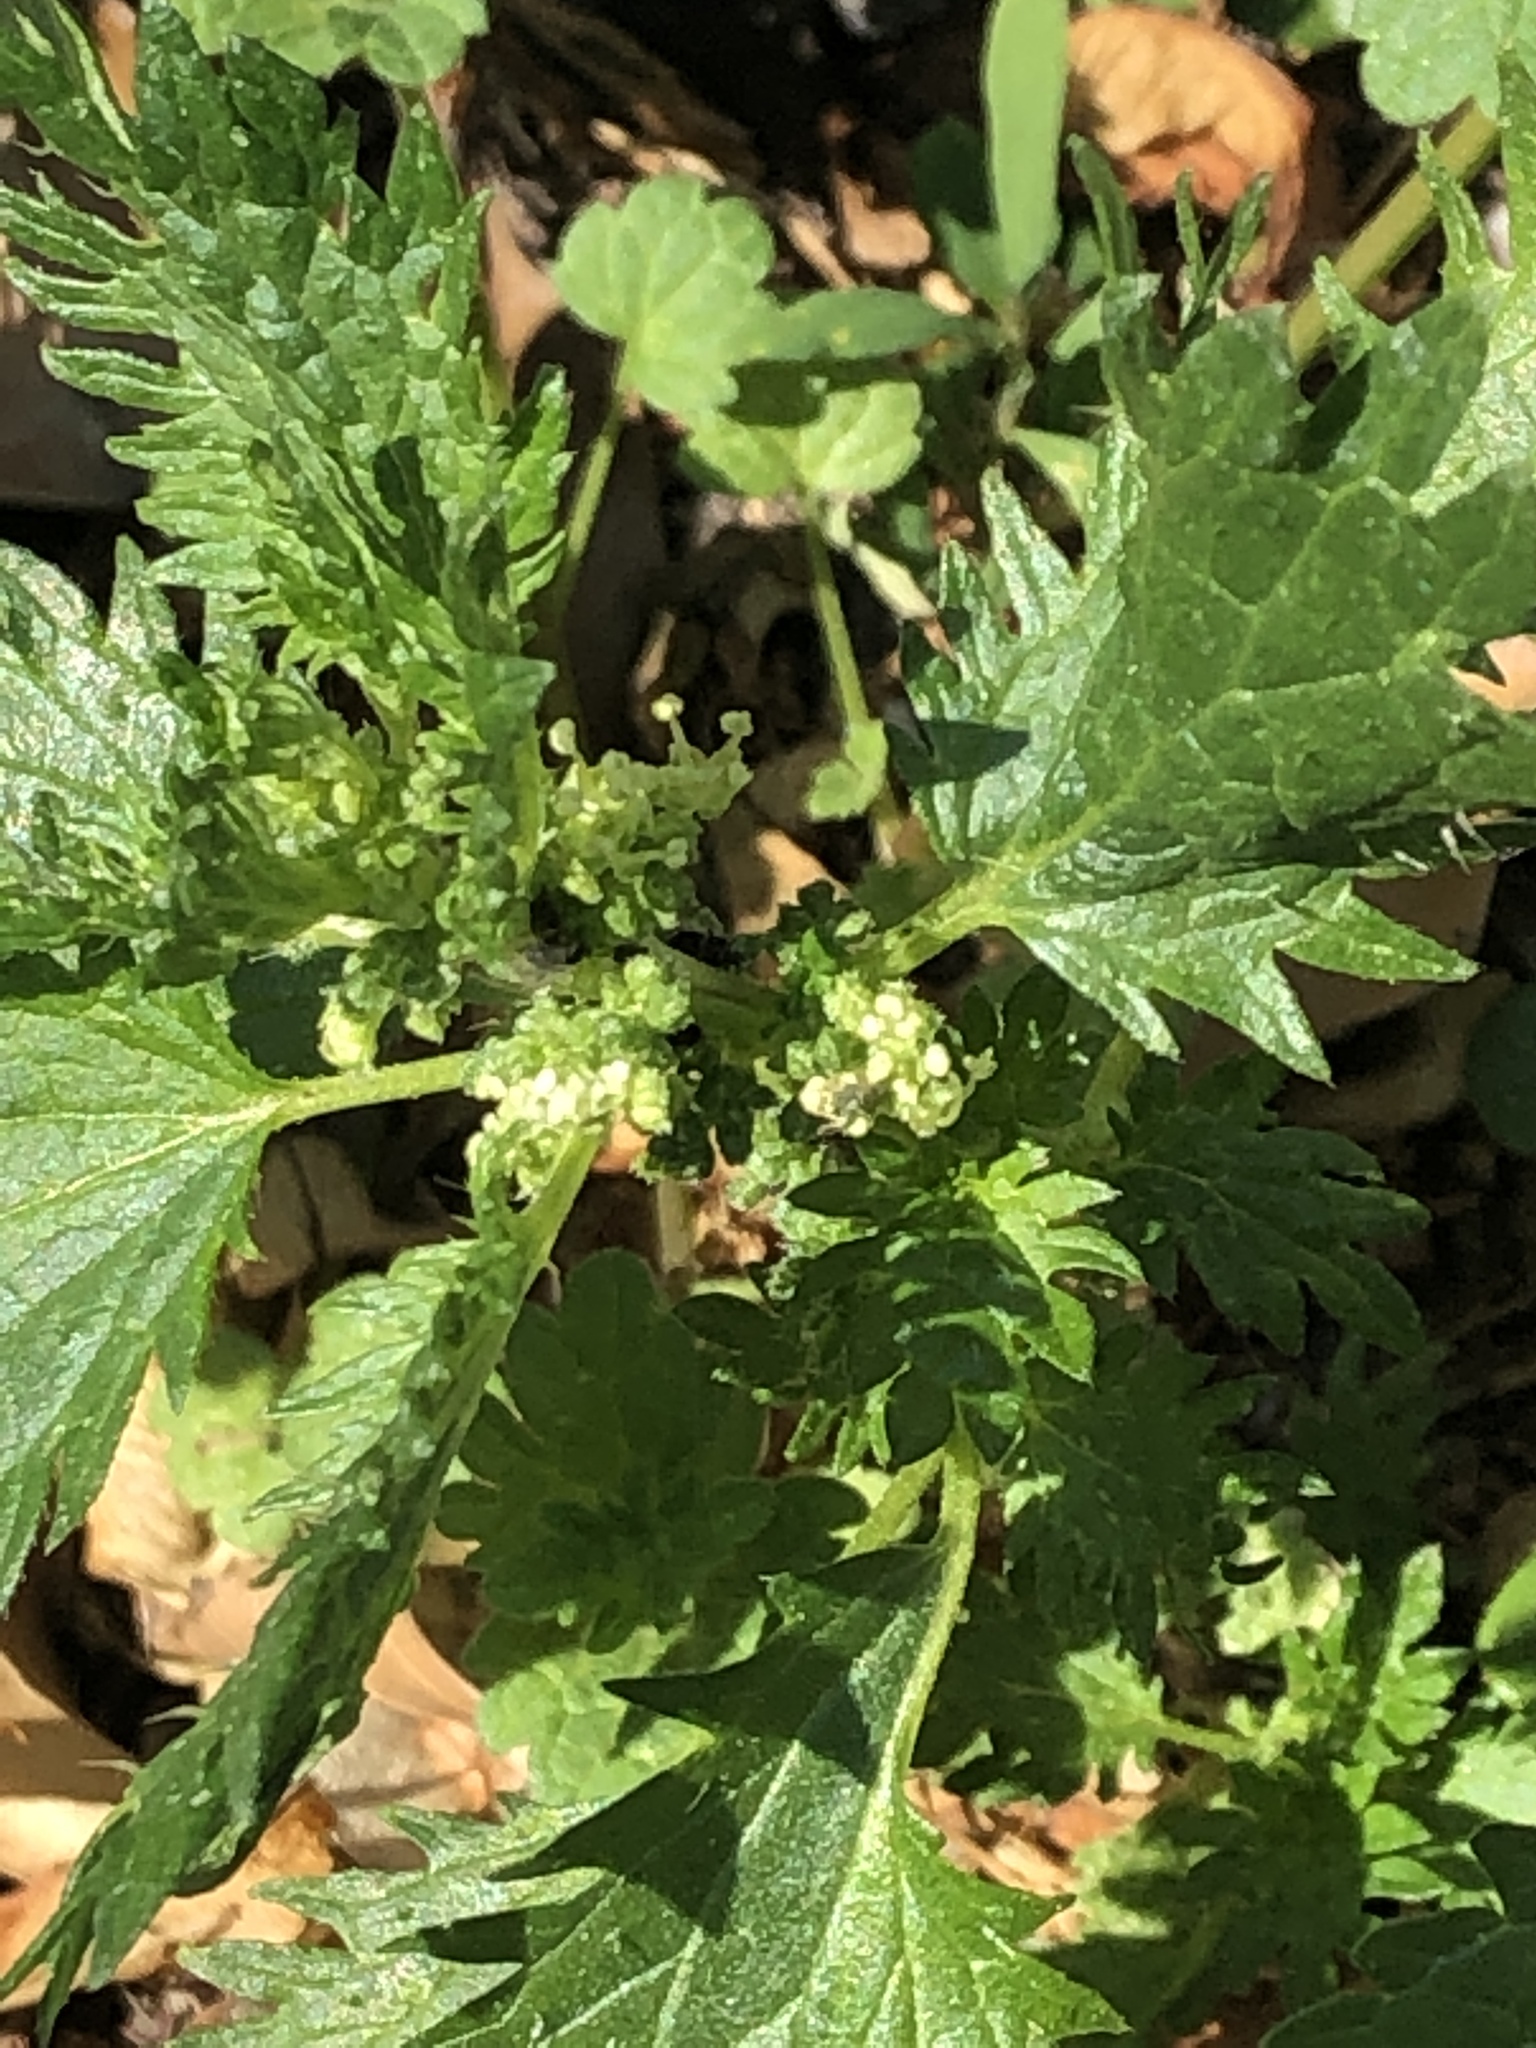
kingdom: Plantae
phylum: Tracheophyta
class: Magnoliopsida
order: Rosales
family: Urticaceae
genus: Urtica
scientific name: Urtica urens
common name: Dwarf nettle
